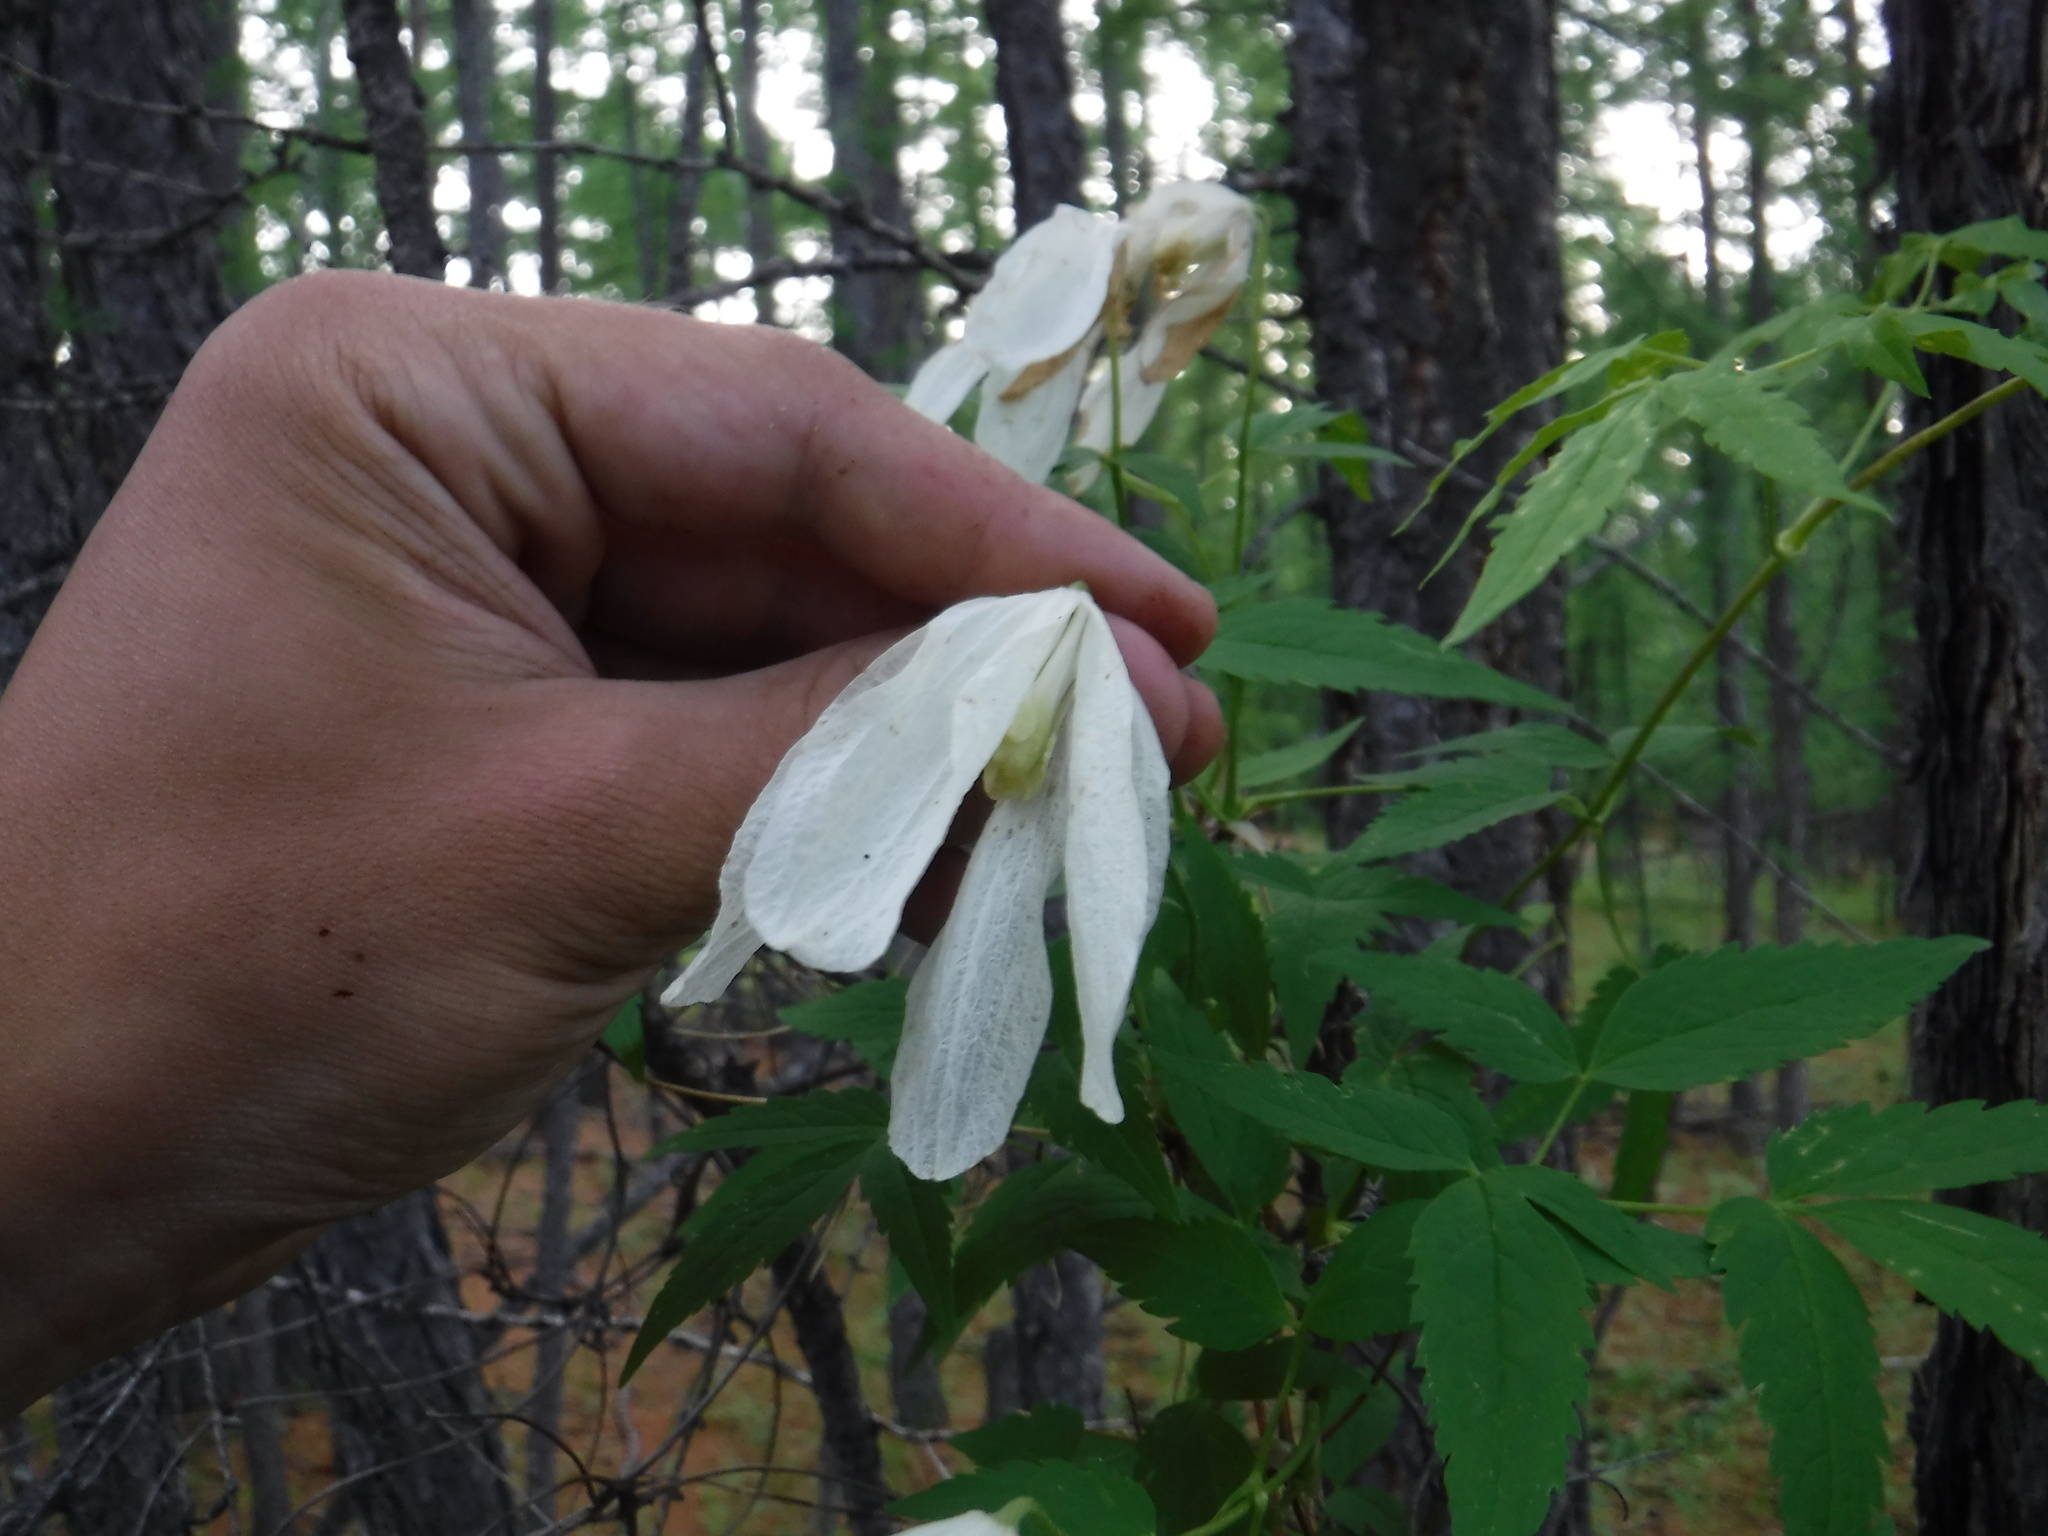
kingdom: Plantae
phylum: Tracheophyta
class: Magnoliopsida
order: Ranunculales
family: Ranunculaceae
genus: Clematis
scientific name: Clematis sibirica
